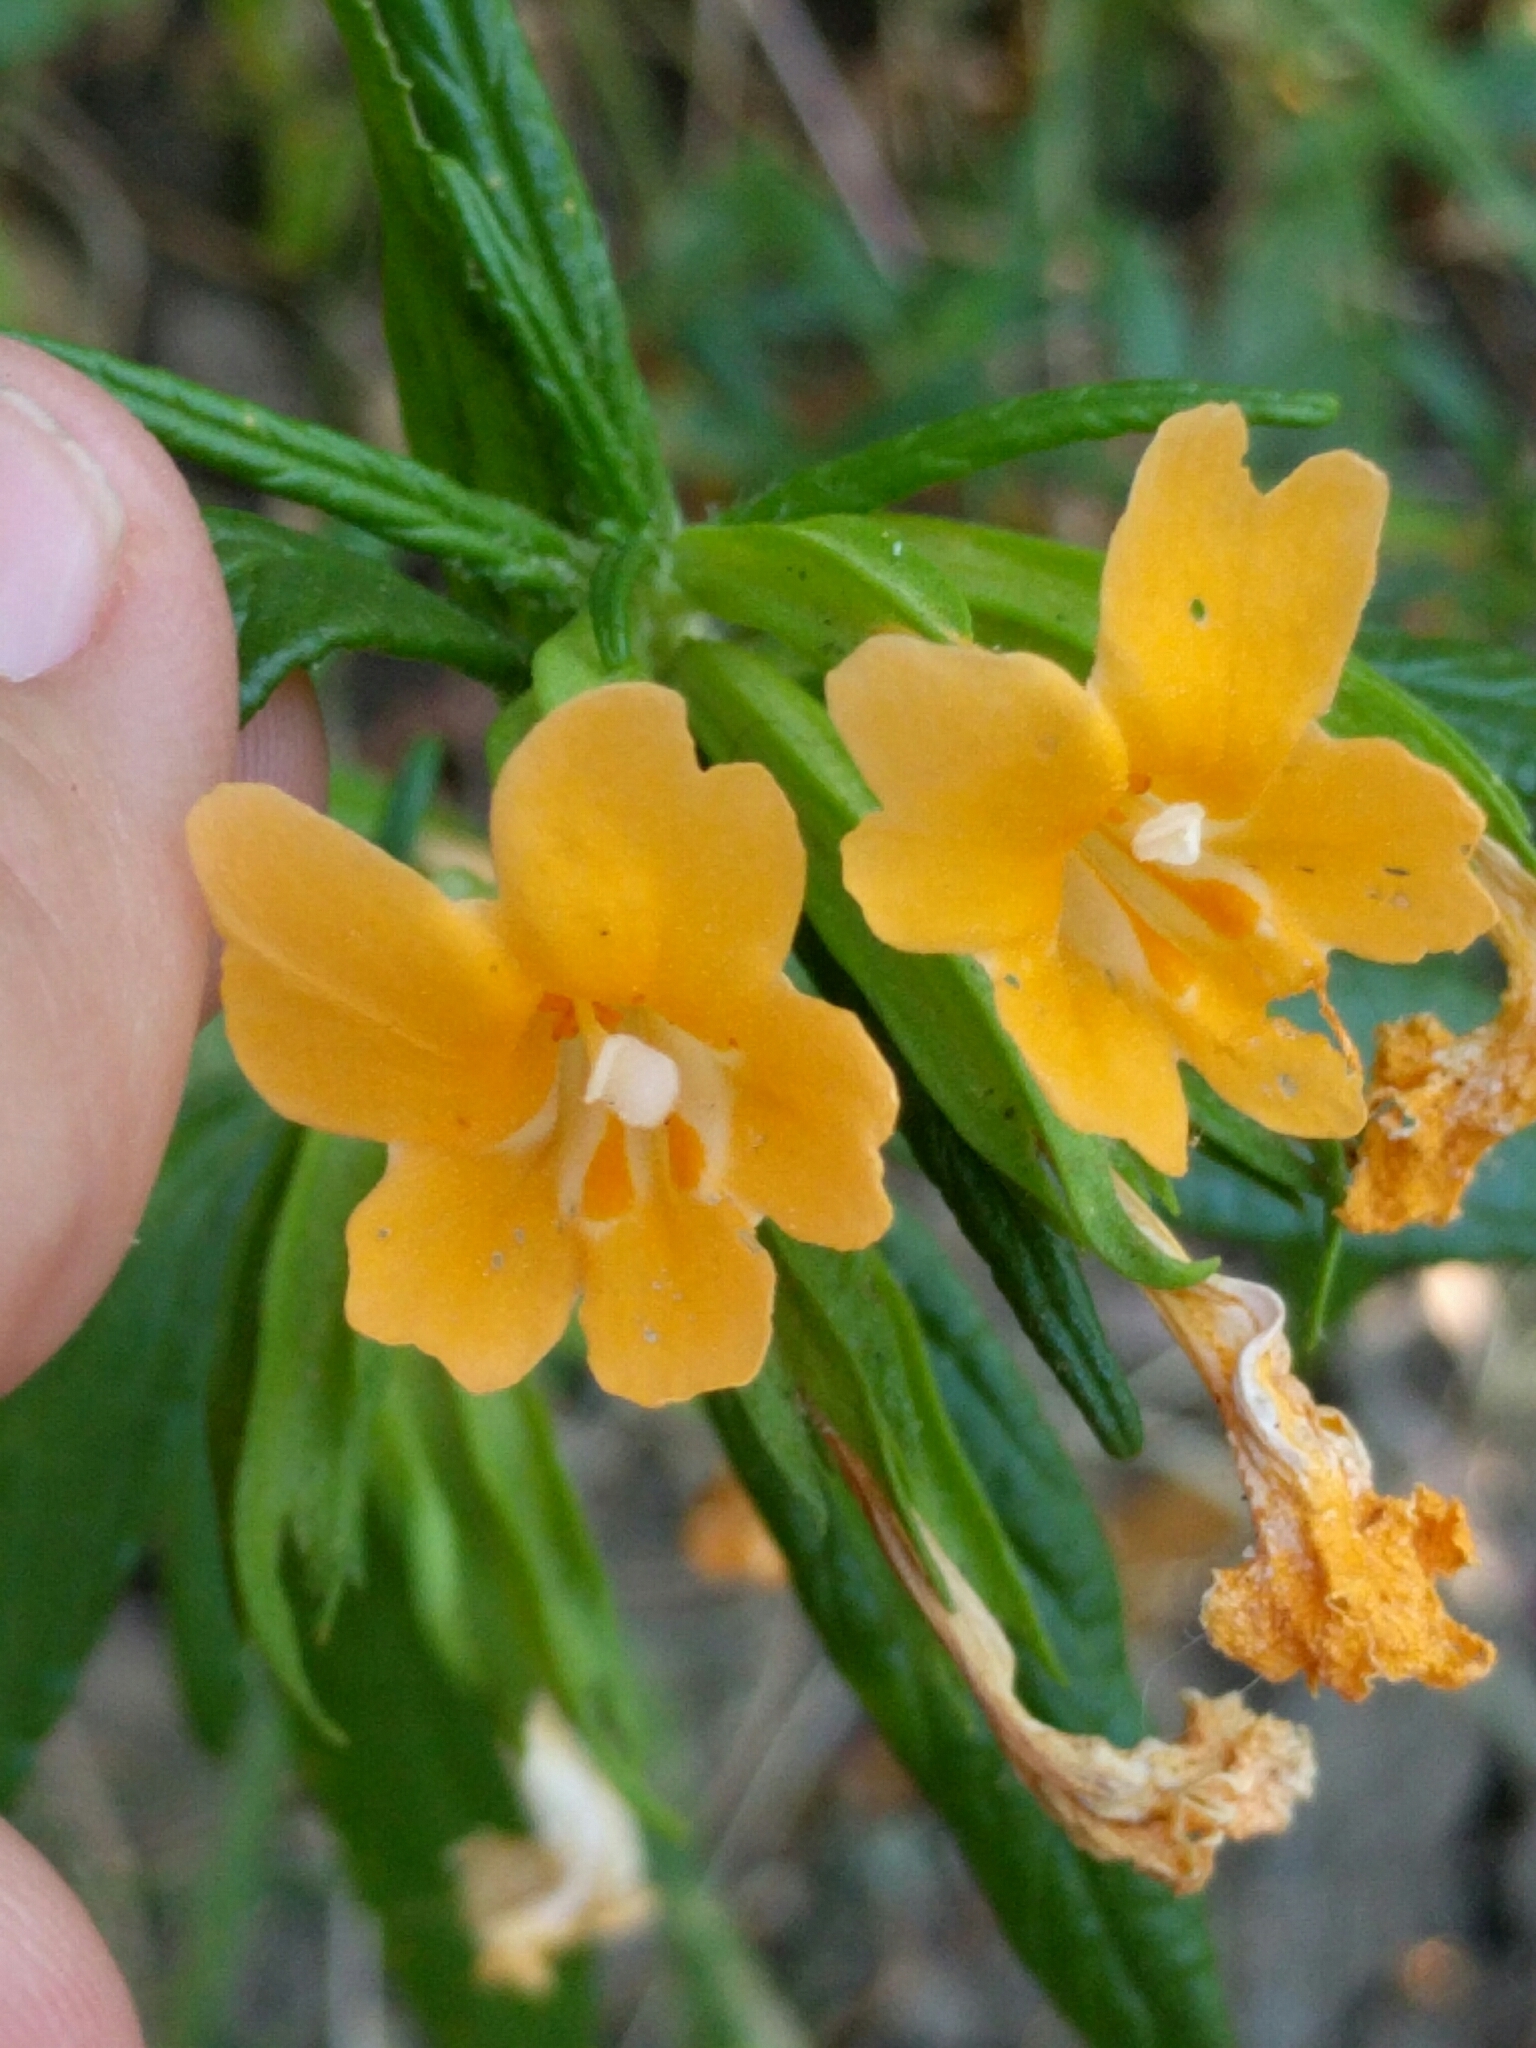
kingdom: Plantae
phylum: Tracheophyta
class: Magnoliopsida
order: Lamiales
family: Phrymaceae
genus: Diplacus
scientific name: Diplacus aurantiacus
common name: Bush monkey-flower
